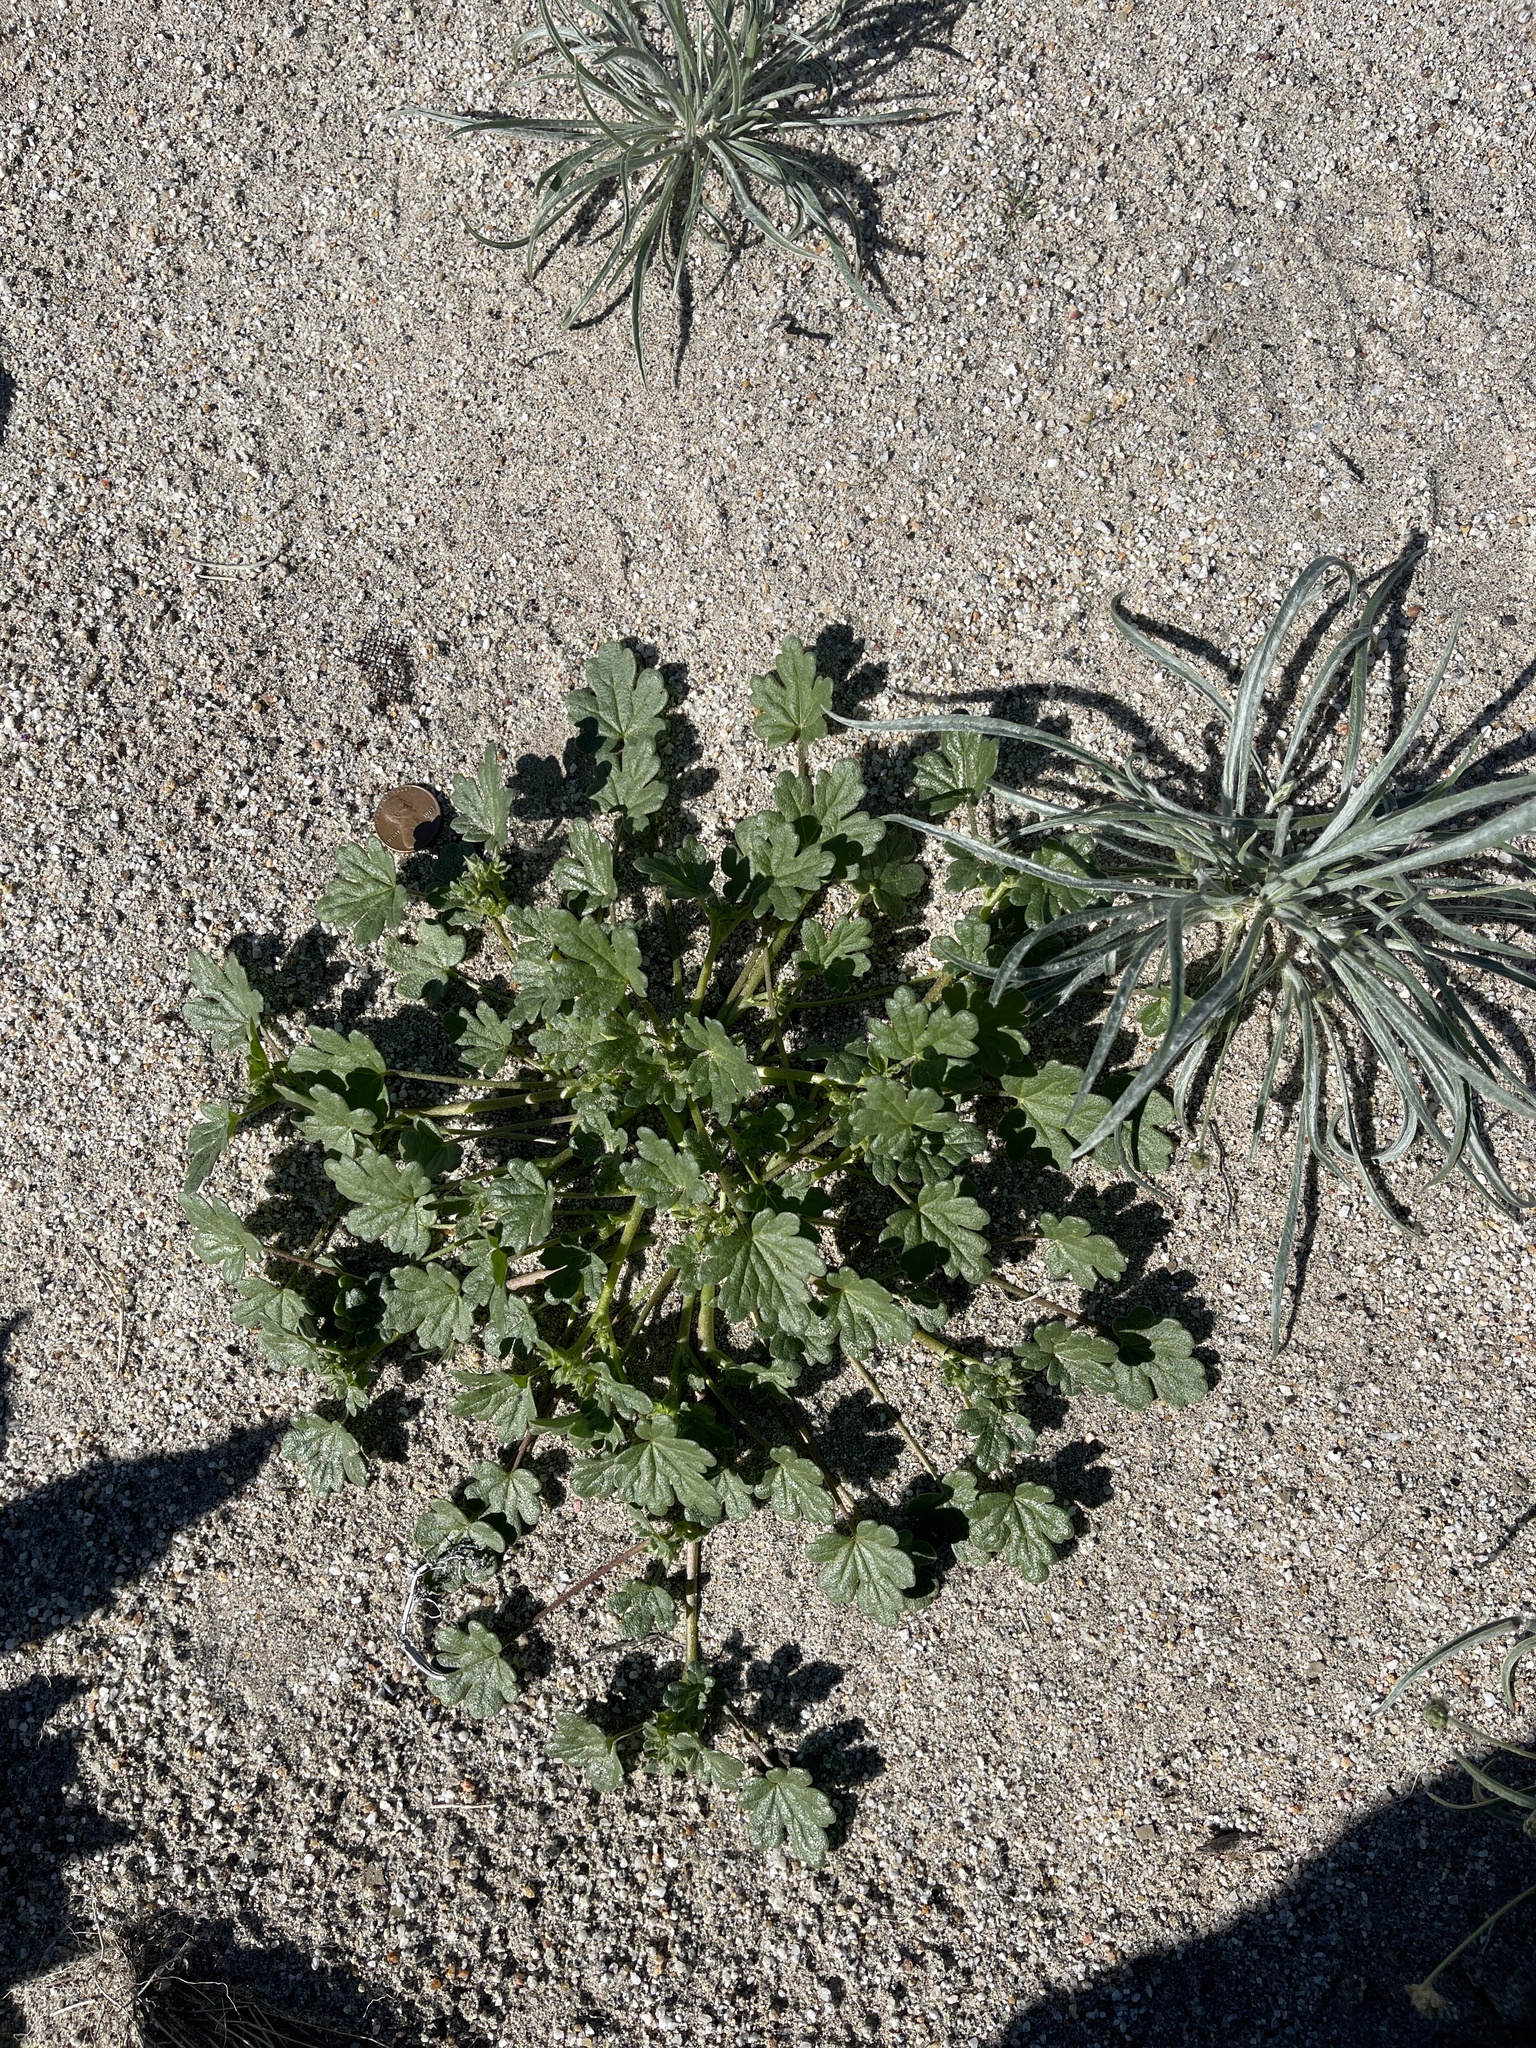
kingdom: Plantae
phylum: Tracheophyta
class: Magnoliopsida
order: Malvales
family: Malvaceae
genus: Eremalche
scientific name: Eremalche exilis
